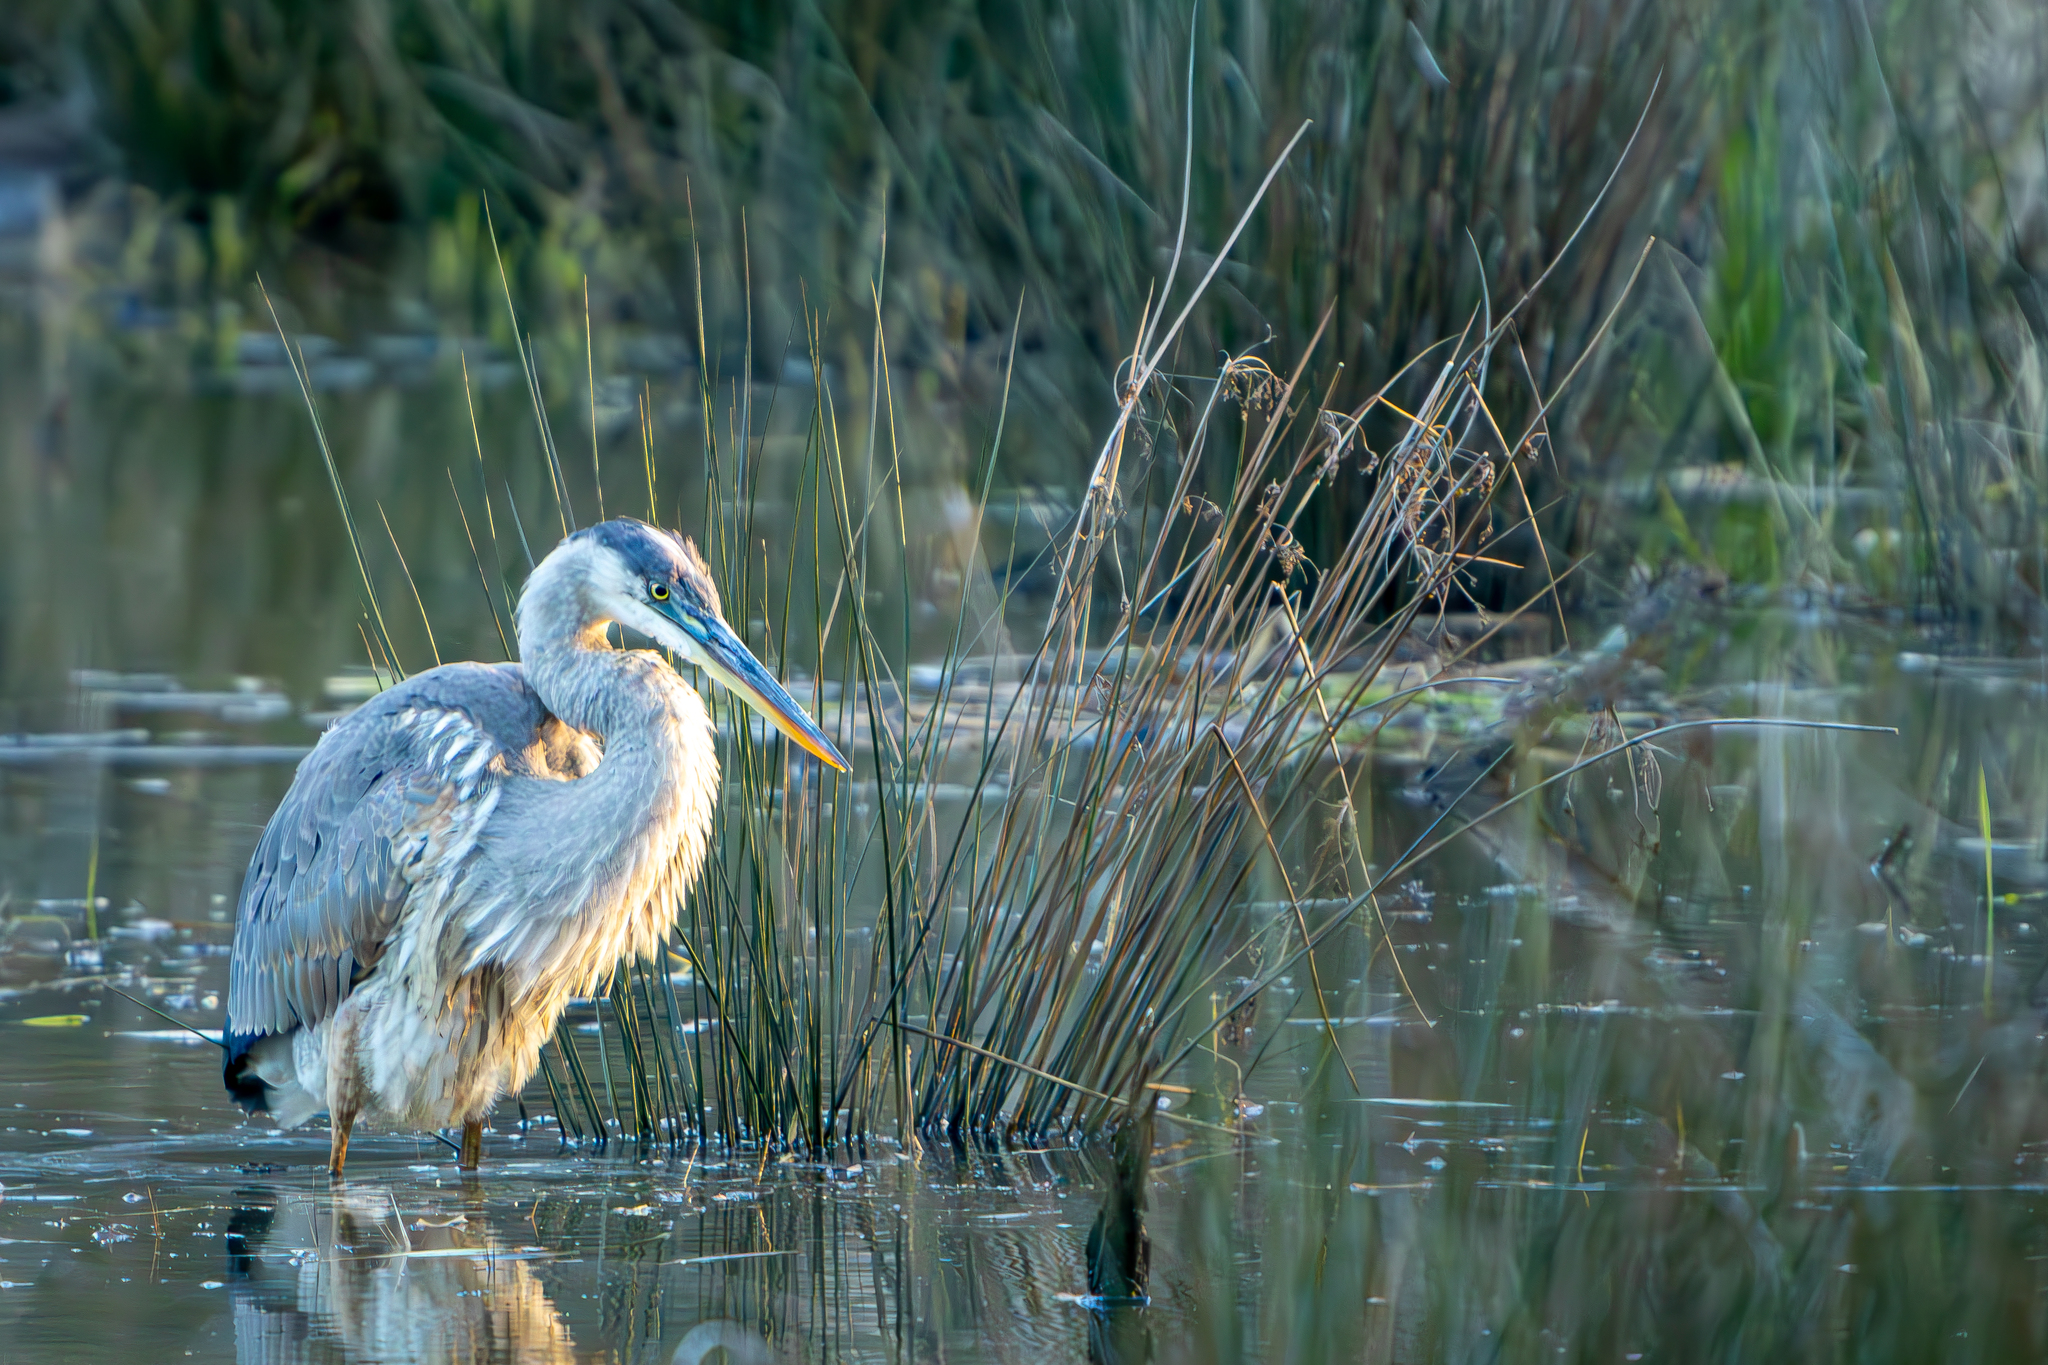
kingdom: Animalia
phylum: Chordata
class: Aves
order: Pelecaniformes
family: Ardeidae
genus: Ardea
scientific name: Ardea herodias
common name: Great blue heron
